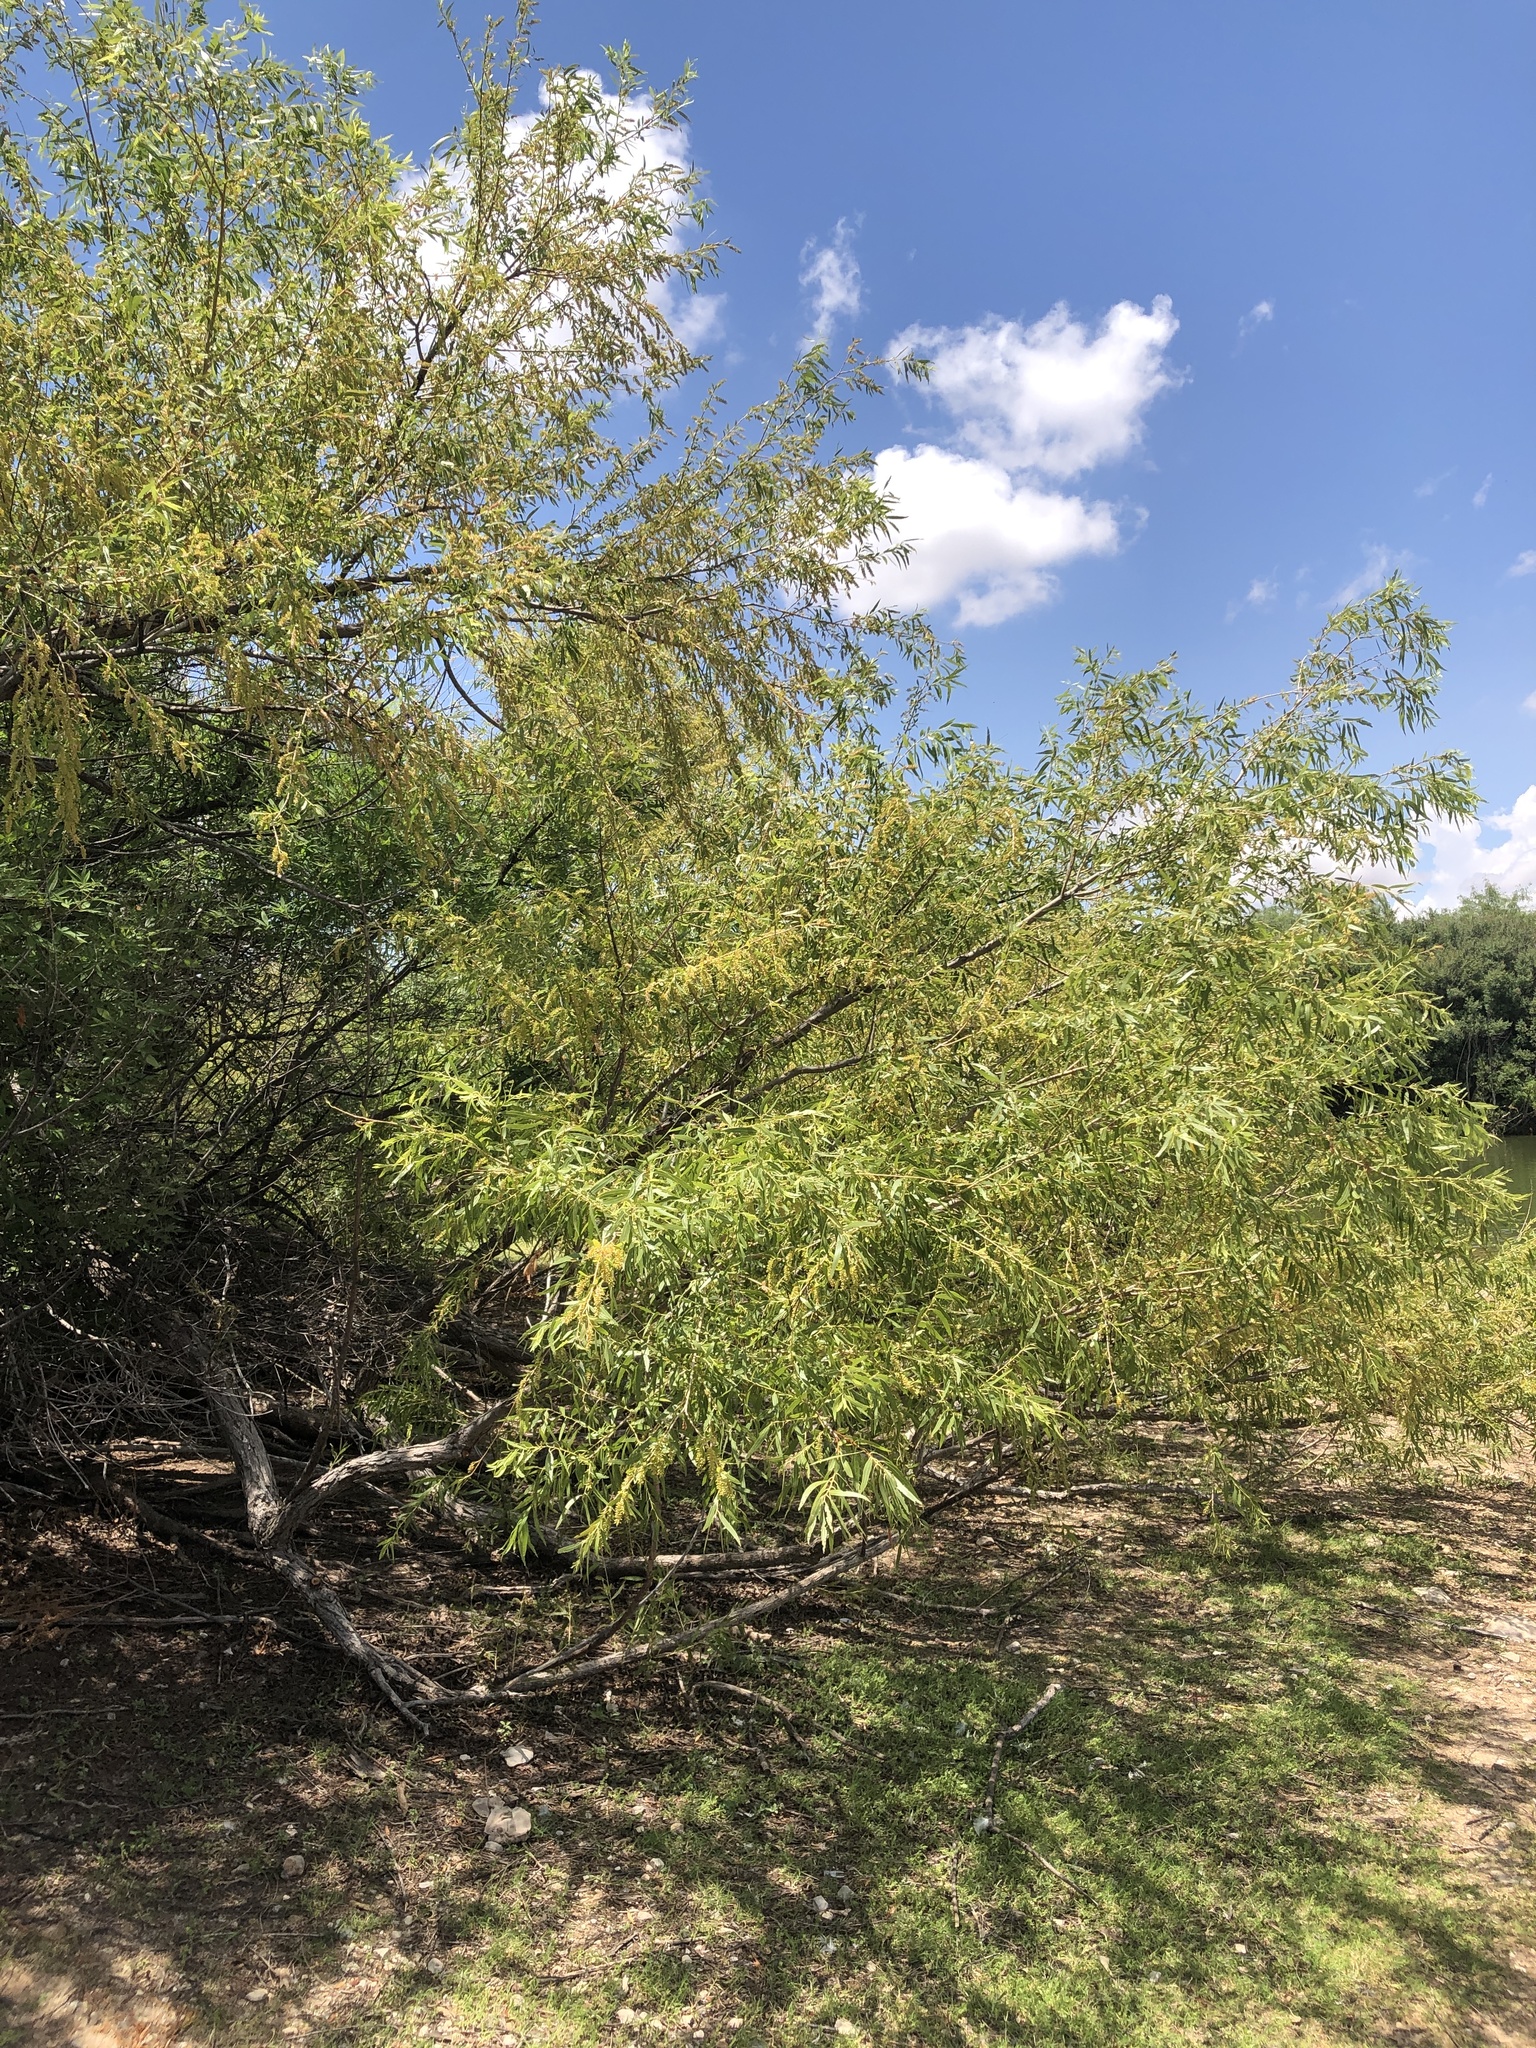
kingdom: Plantae
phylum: Tracheophyta
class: Magnoliopsida
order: Malpighiales
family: Salicaceae
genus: Salix
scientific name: Salix nigra
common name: Black willow
